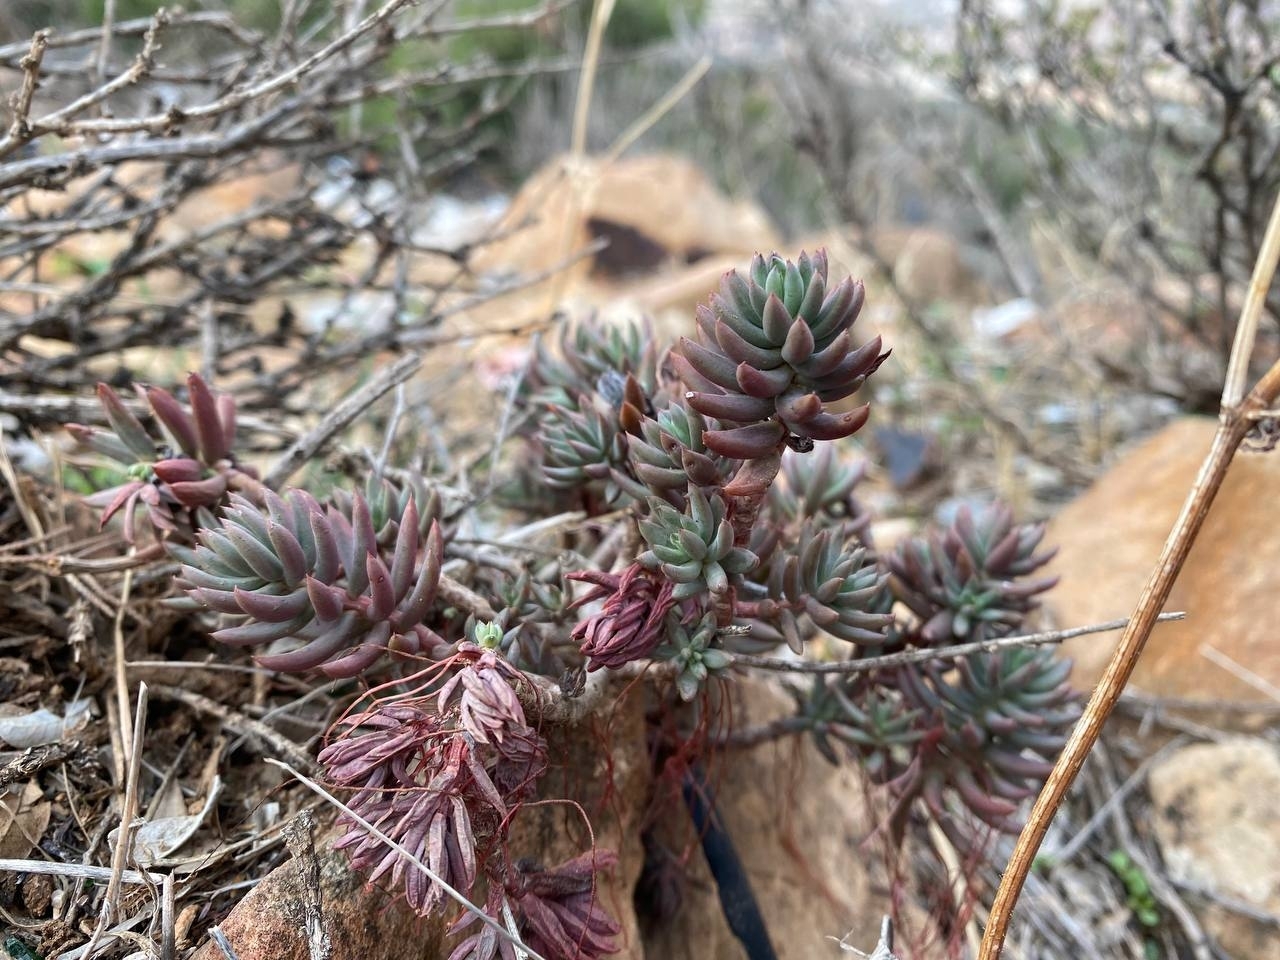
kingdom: Plantae
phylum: Tracheophyta
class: Magnoliopsida
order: Saxifragales
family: Crassulaceae
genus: Petrosedum
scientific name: Petrosedum sediforme
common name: Pale stonecrop
